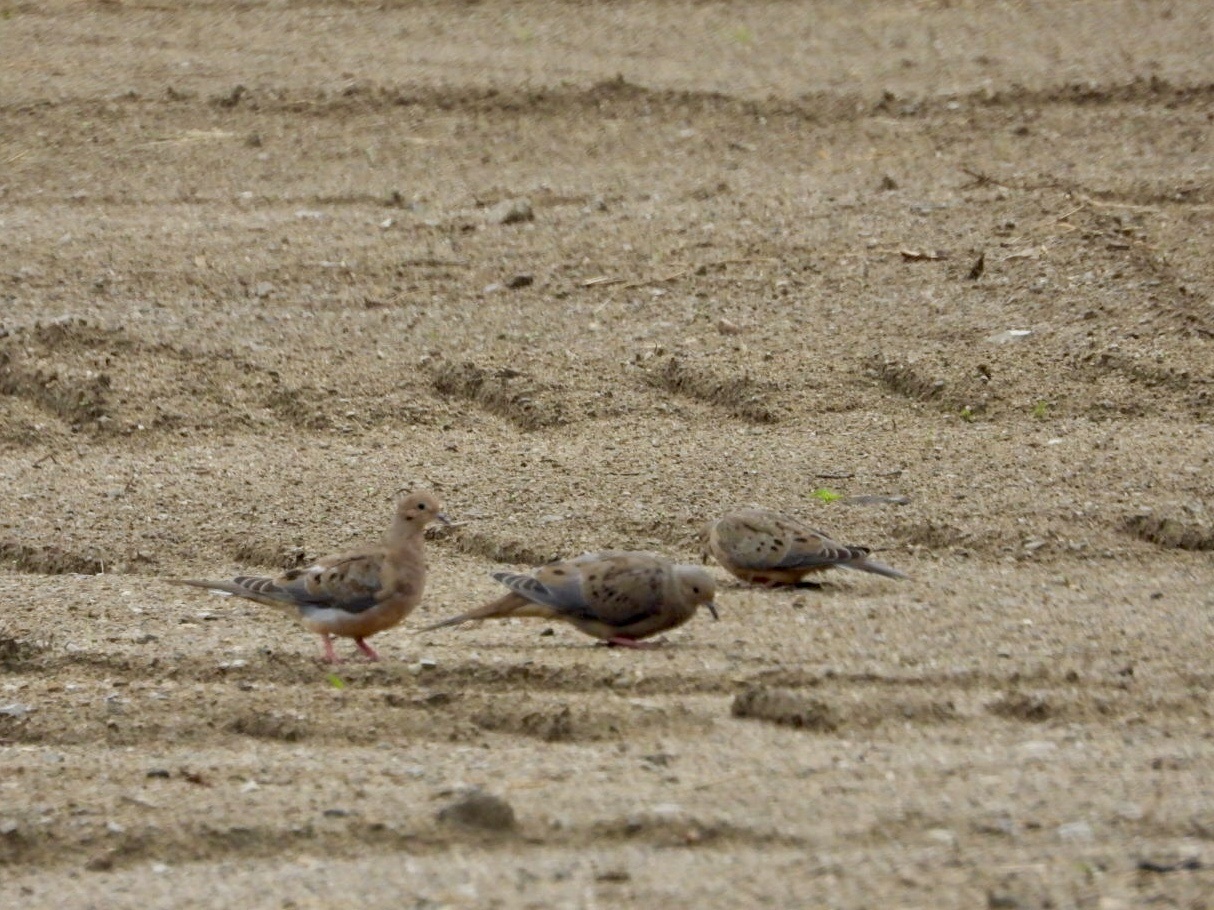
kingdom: Animalia
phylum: Chordata
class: Aves
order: Columbiformes
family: Columbidae
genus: Zenaida
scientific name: Zenaida macroura
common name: Mourning dove
